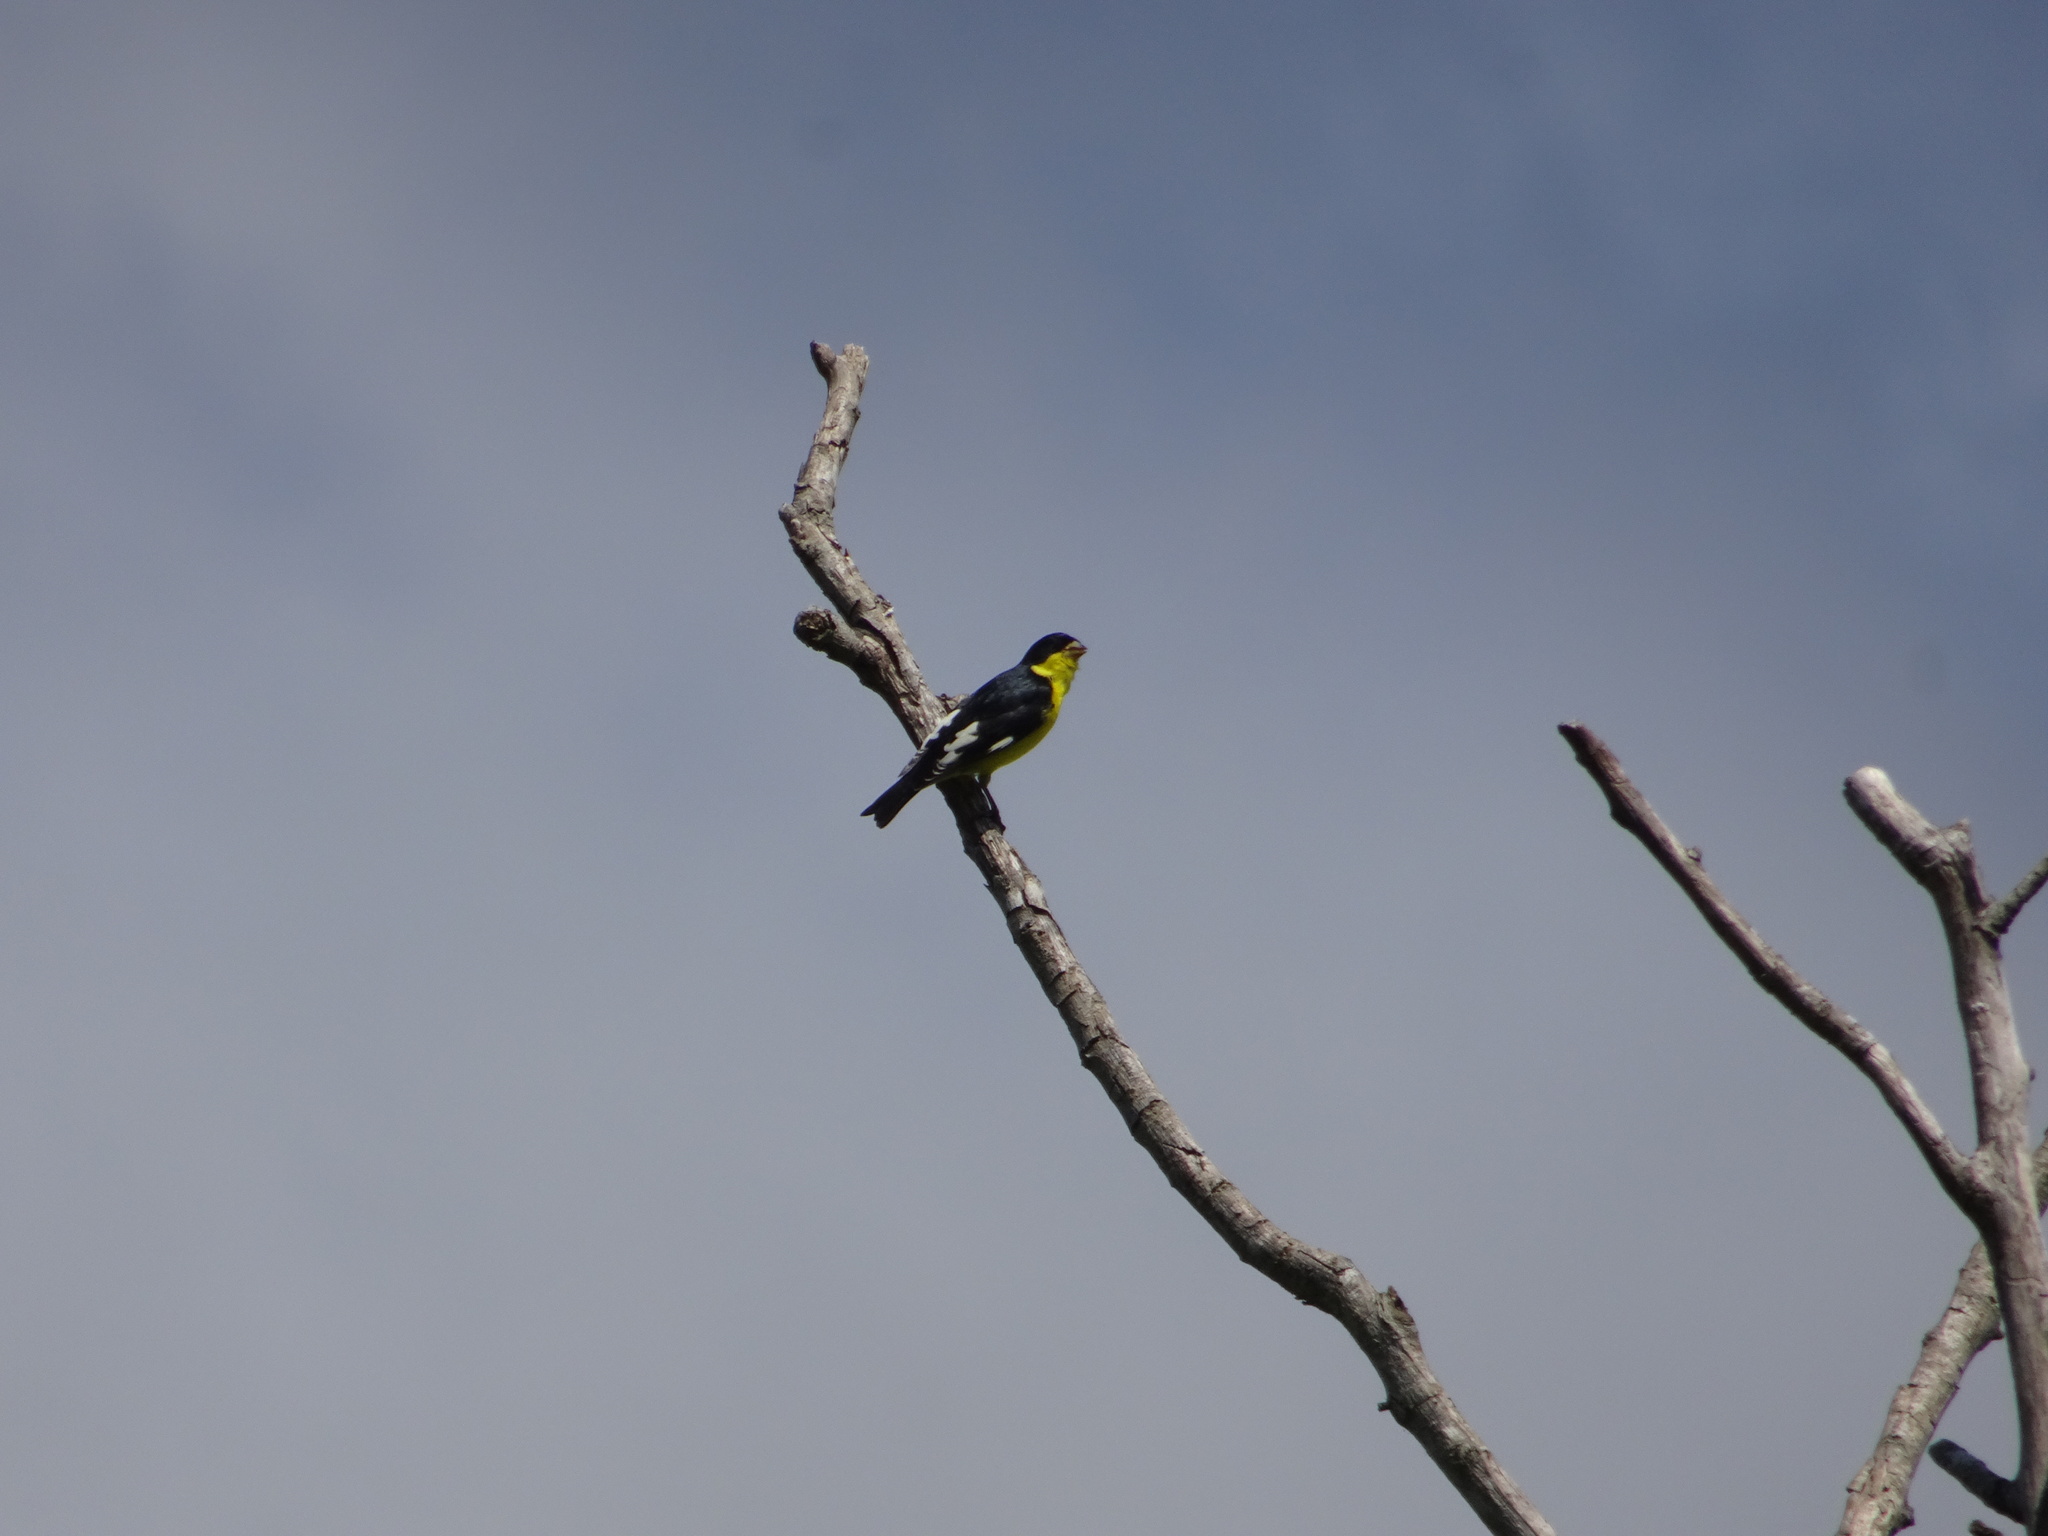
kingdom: Animalia
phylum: Chordata
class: Aves
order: Passeriformes
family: Fringillidae
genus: Spinus
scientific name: Spinus psaltria
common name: Lesser goldfinch
